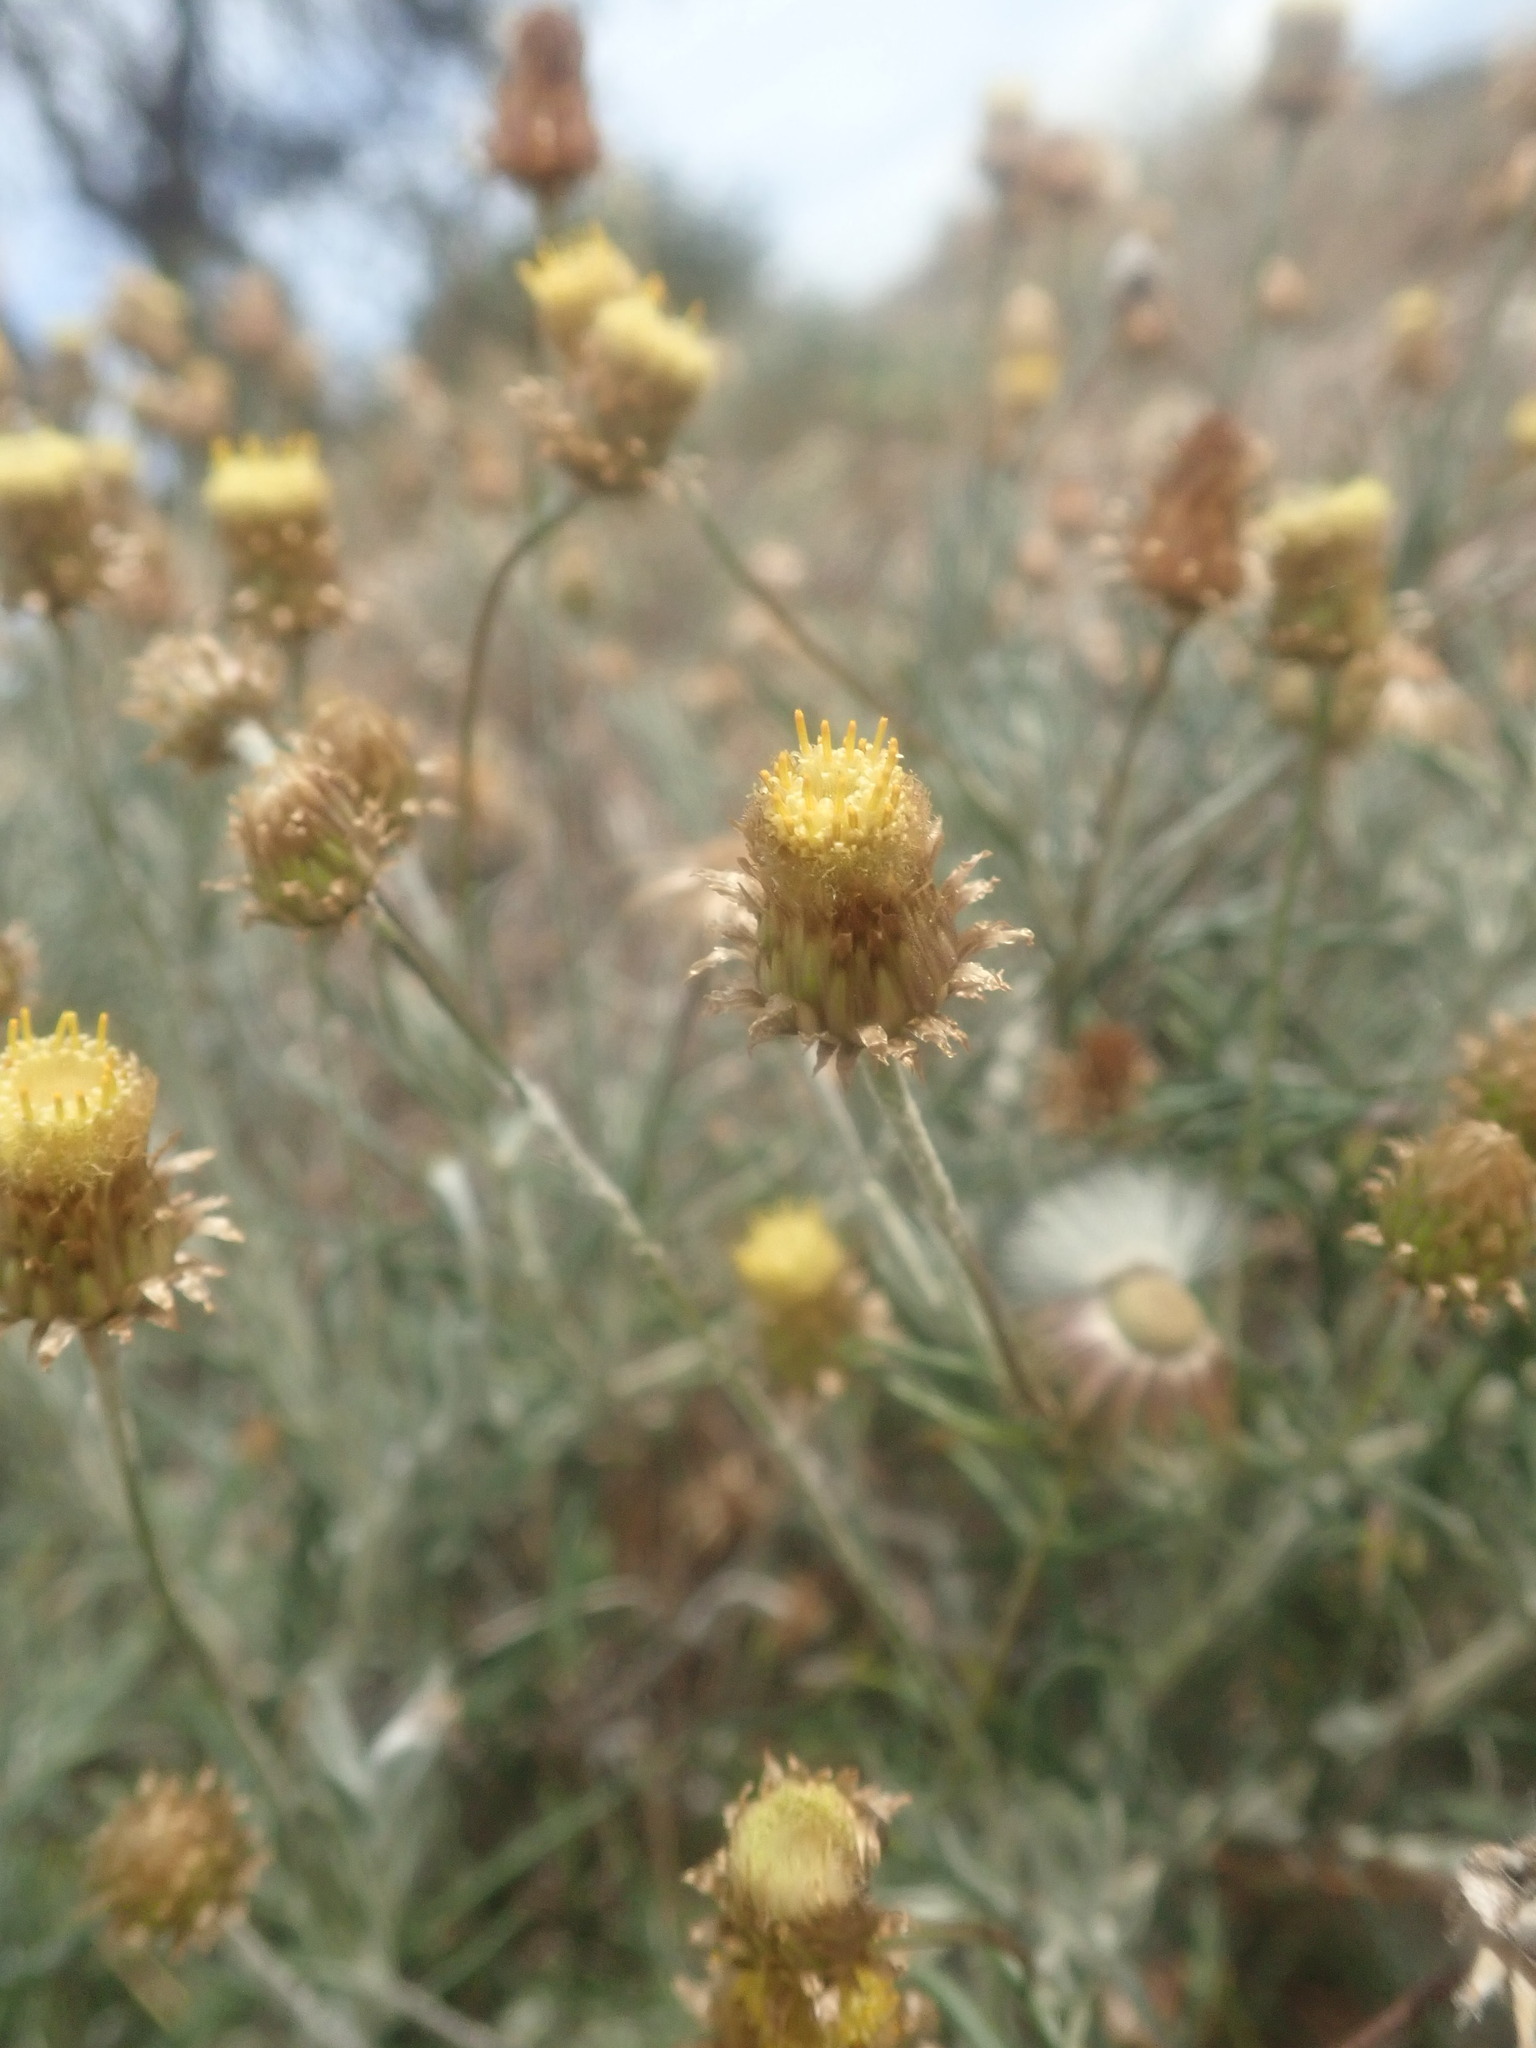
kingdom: Plantae
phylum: Tracheophyta
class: Magnoliopsida
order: Asterales
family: Asteraceae
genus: Phagnalon
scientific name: Phagnalon saxatile
